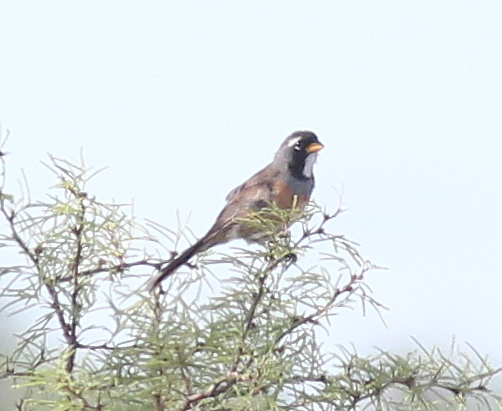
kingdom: Animalia
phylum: Chordata
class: Aves
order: Passeriformes
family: Thraupidae
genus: Saltatricula
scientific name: Saltatricula multicolor
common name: Many-colored chaco finch
